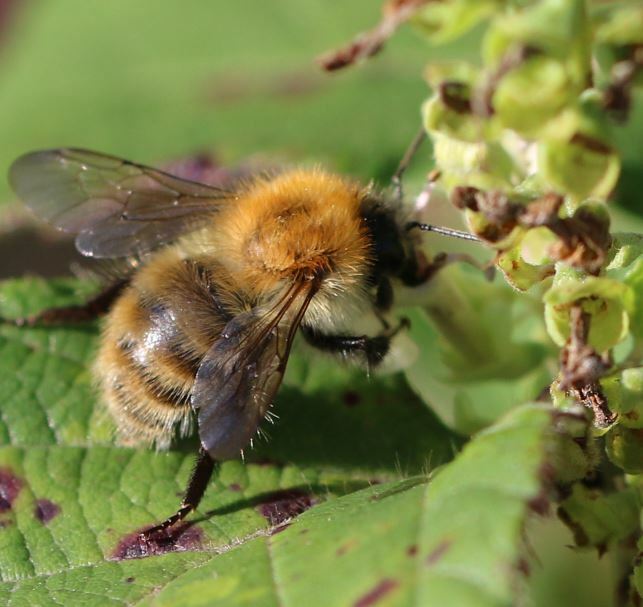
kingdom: Animalia
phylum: Arthropoda
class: Insecta
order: Hymenoptera
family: Apidae
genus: Bombus
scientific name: Bombus pascuorum
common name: Common carder bee
